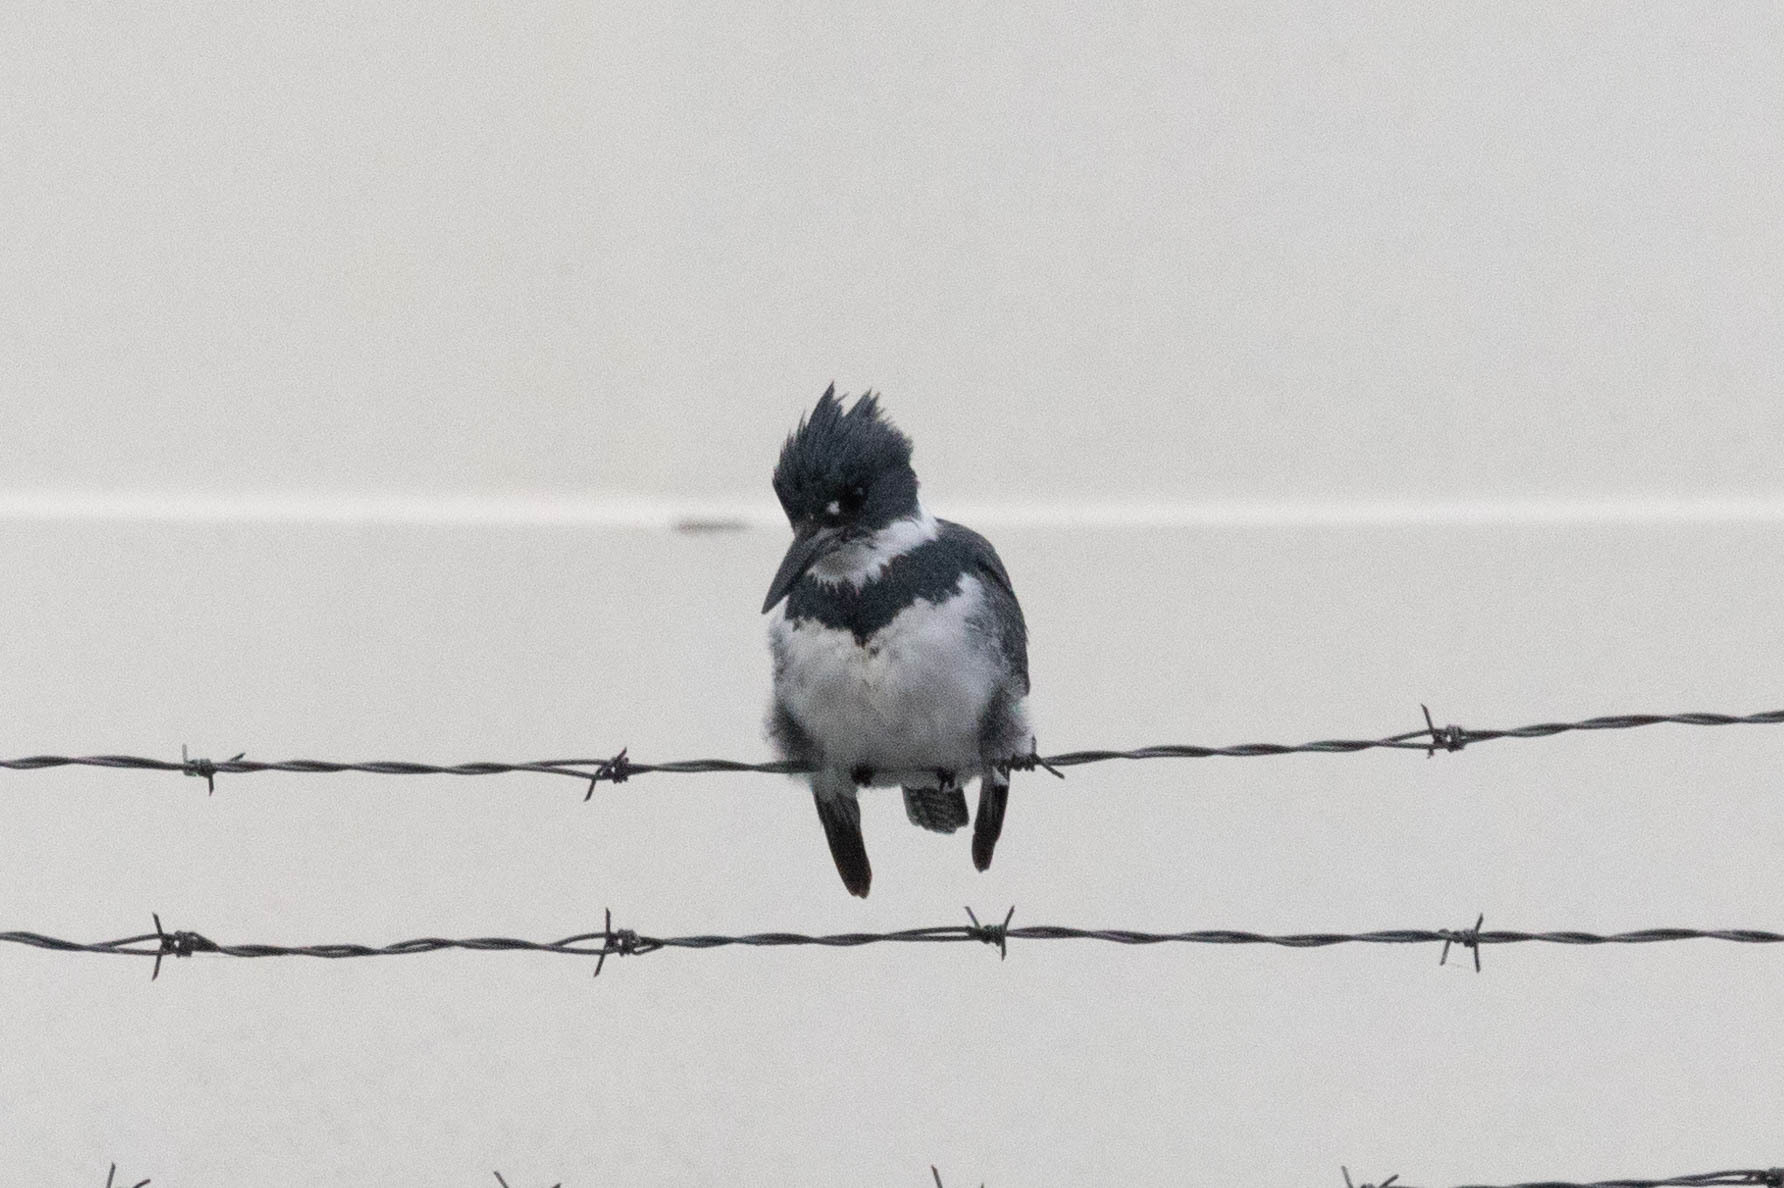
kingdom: Animalia
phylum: Chordata
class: Aves
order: Coraciiformes
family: Alcedinidae
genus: Megaceryle
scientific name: Megaceryle alcyon
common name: Belted kingfisher
